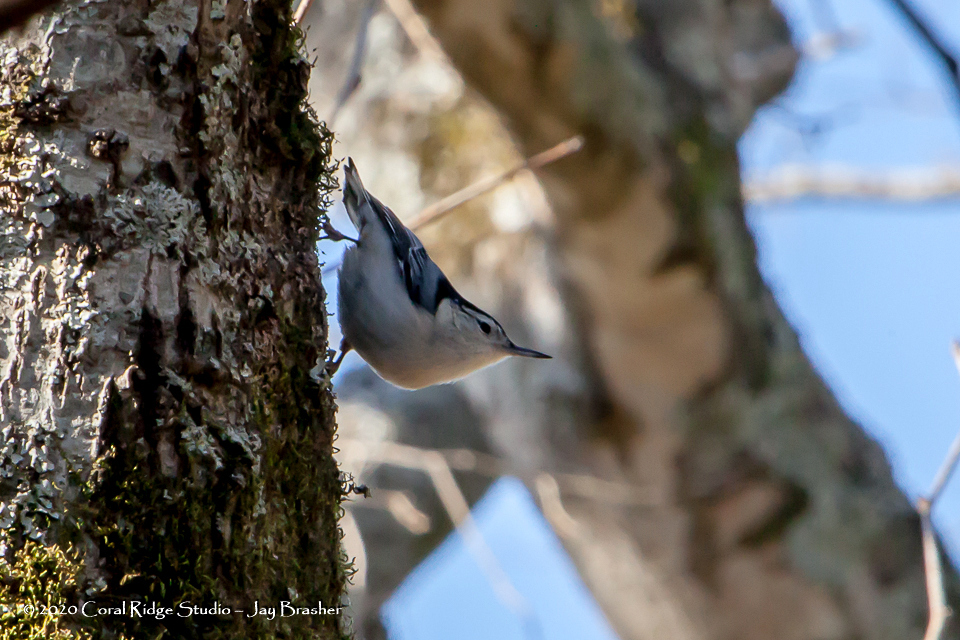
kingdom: Animalia
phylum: Chordata
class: Aves
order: Passeriformes
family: Sittidae
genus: Sitta
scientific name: Sitta carolinensis
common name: White-breasted nuthatch
